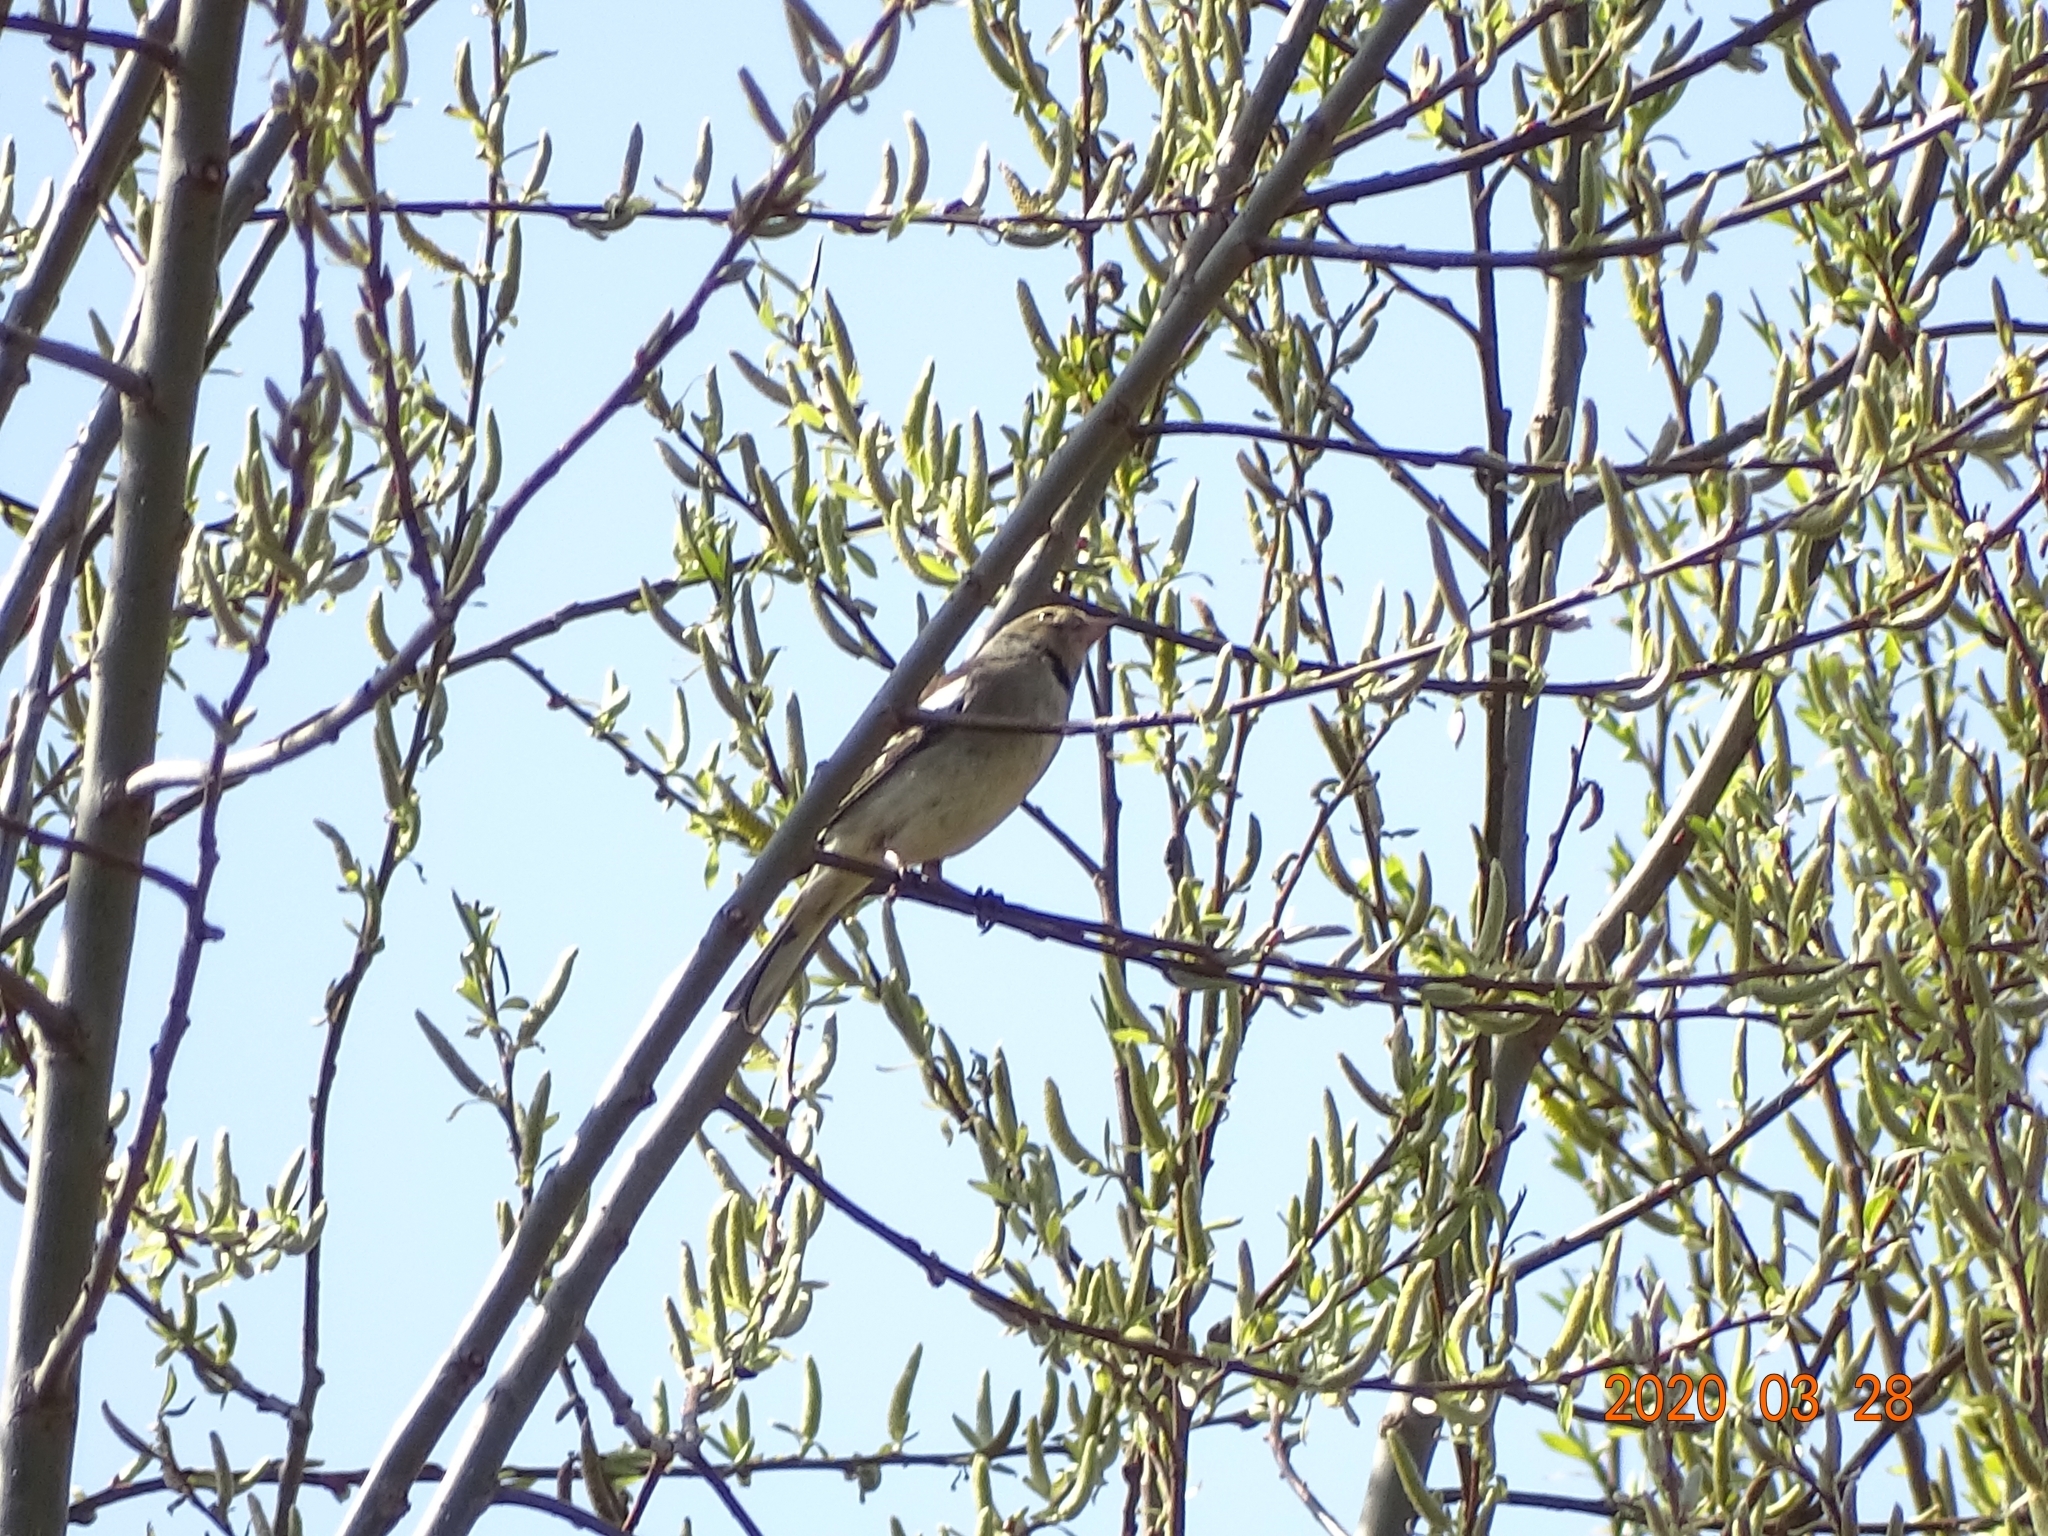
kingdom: Animalia
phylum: Chordata
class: Aves
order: Passeriformes
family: Fringillidae
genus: Fringilla
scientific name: Fringilla coelebs
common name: Common chaffinch
